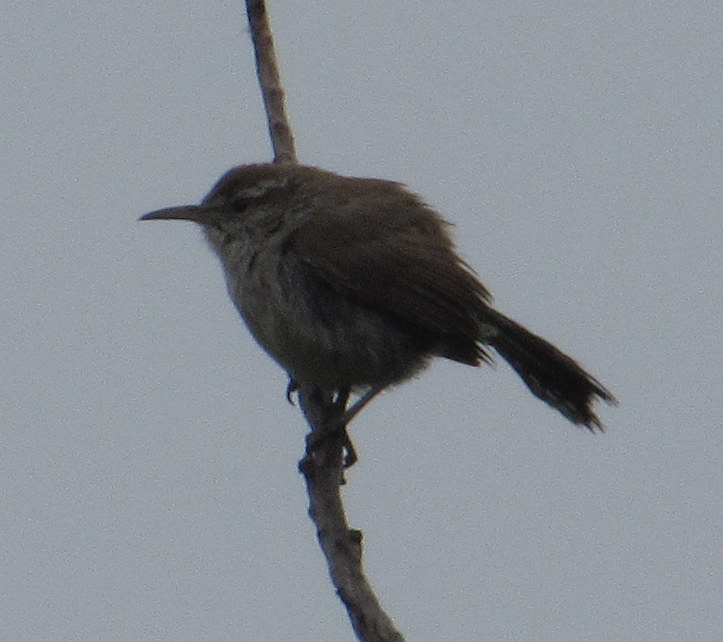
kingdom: Animalia
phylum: Chordata
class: Aves
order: Passeriformes
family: Troglodytidae
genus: Thryomanes
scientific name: Thryomanes bewickii
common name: Bewick's wren
